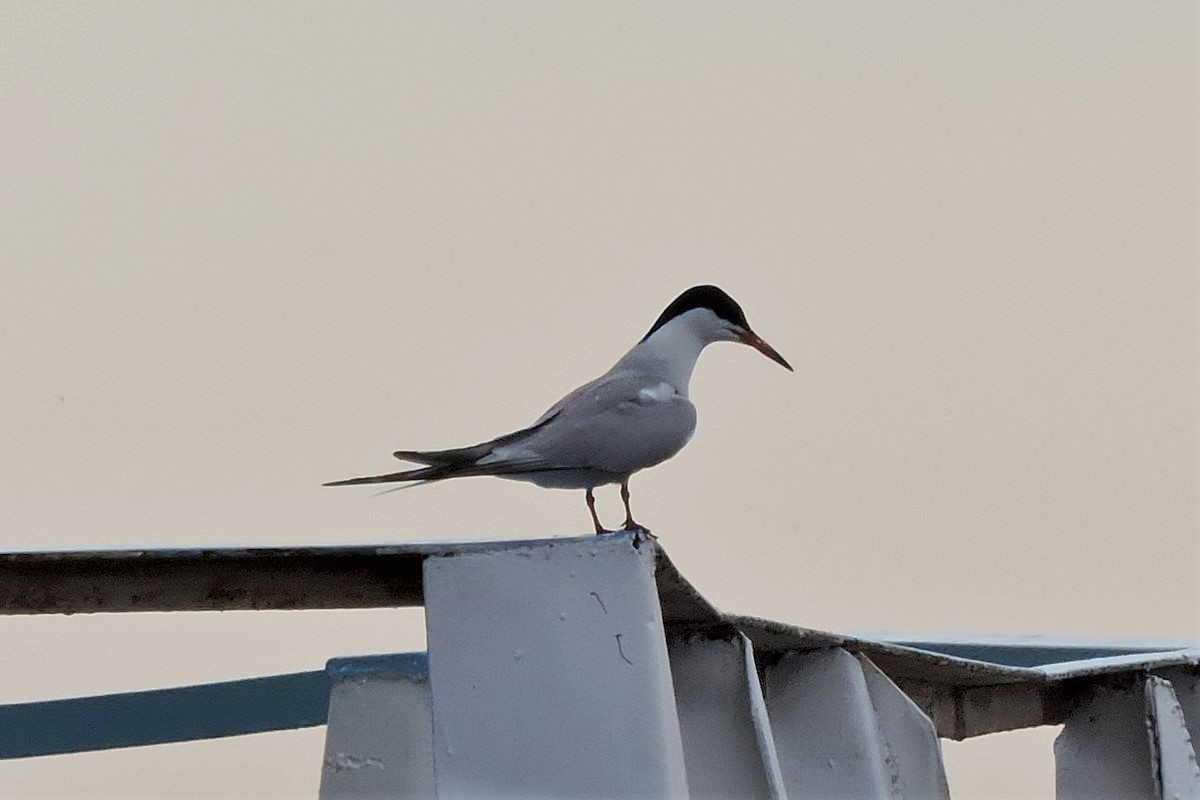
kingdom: Animalia
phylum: Chordata
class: Aves
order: Charadriiformes
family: Laridae
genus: Sterna
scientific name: Sterna hirundo
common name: Common tern
